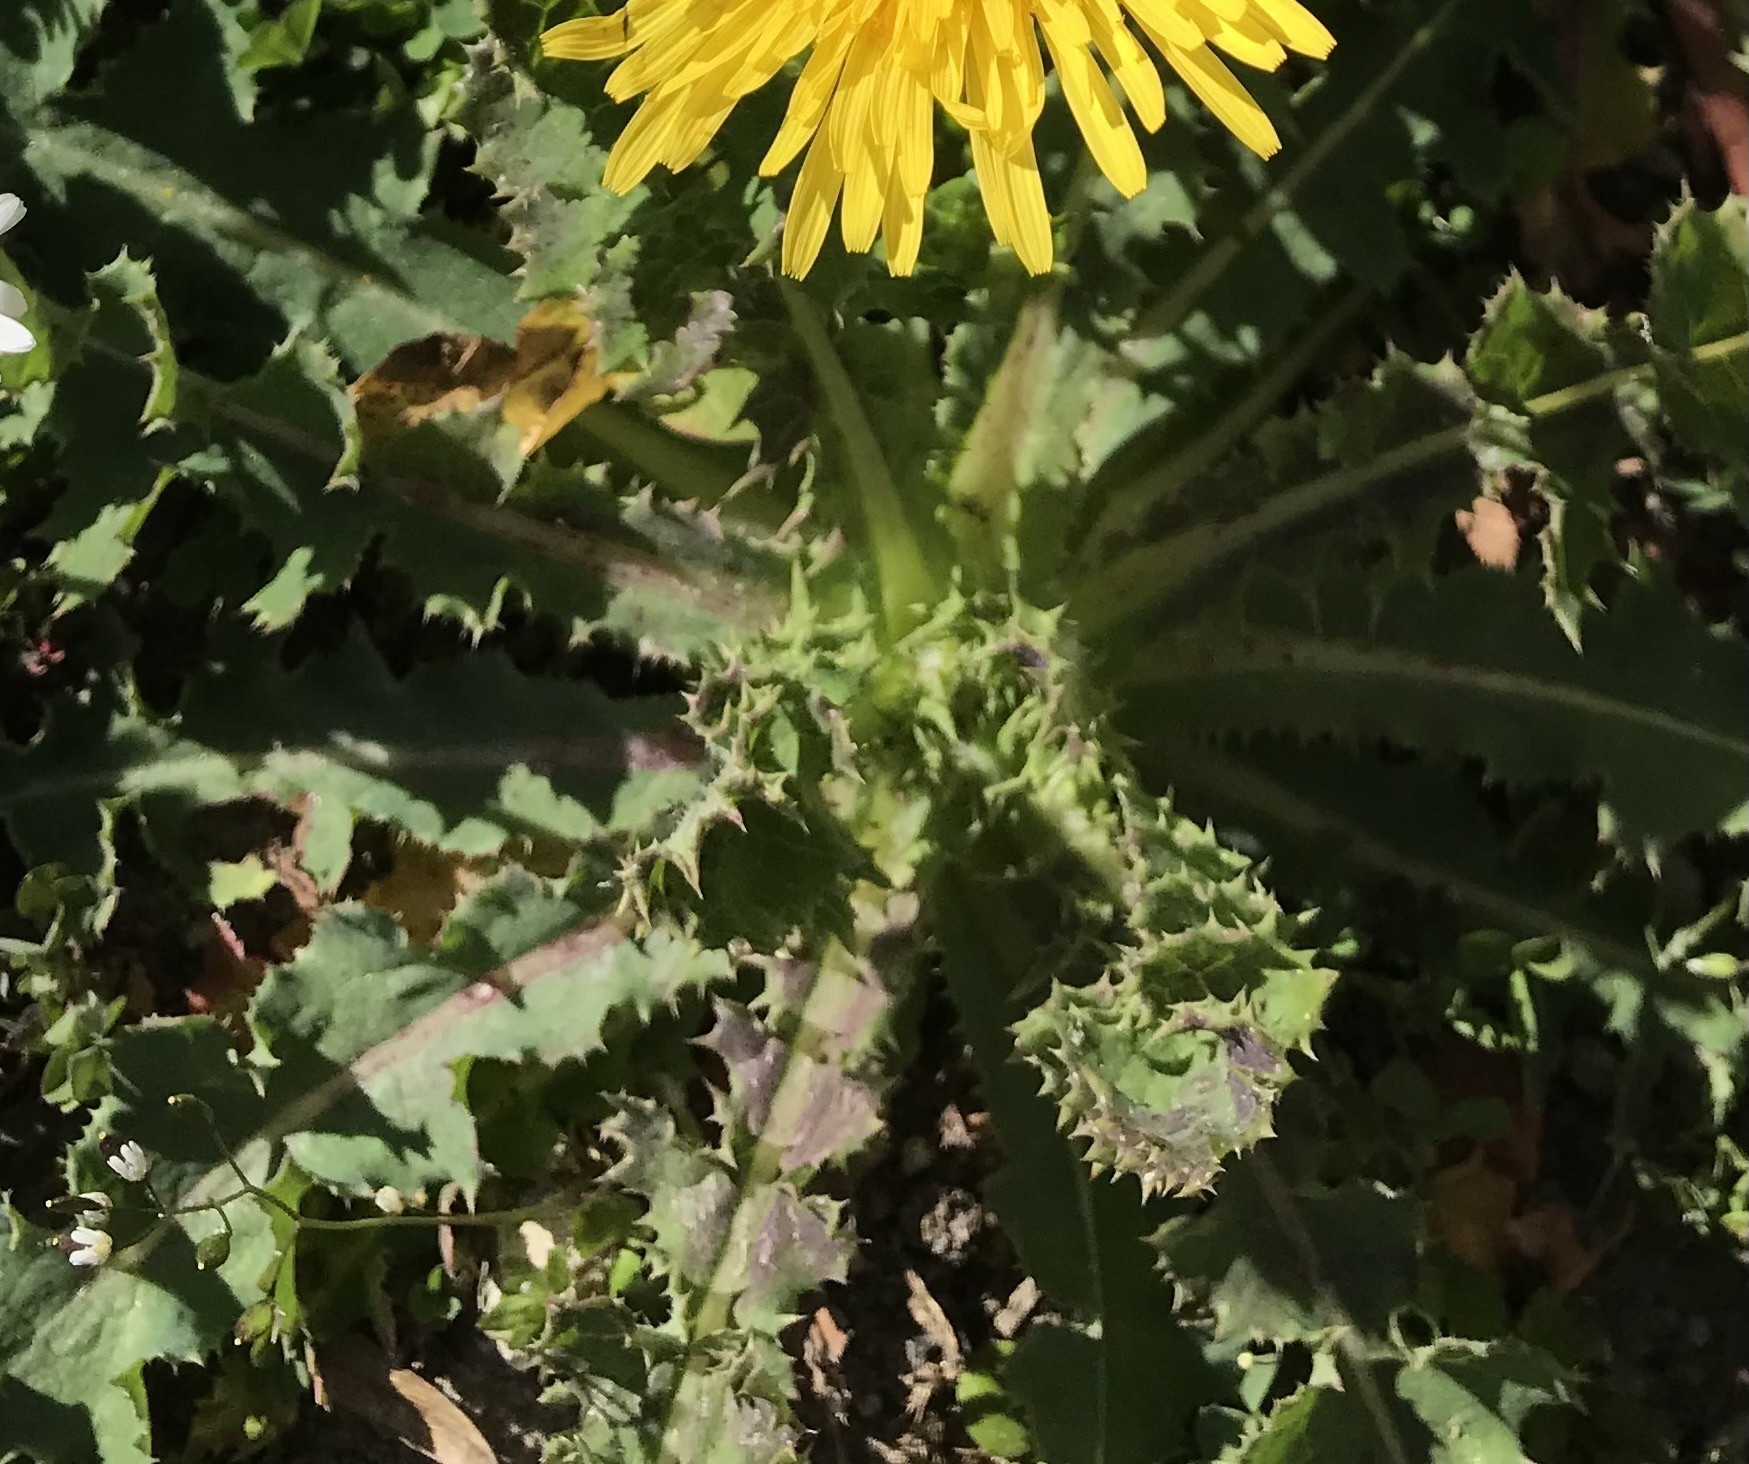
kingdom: Plantae
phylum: Tracheophyta
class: Magnoliopsida
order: Asterales
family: Asteraceae
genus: Sonchus
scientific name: Sonchus asper
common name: Prickly sow-thistle
